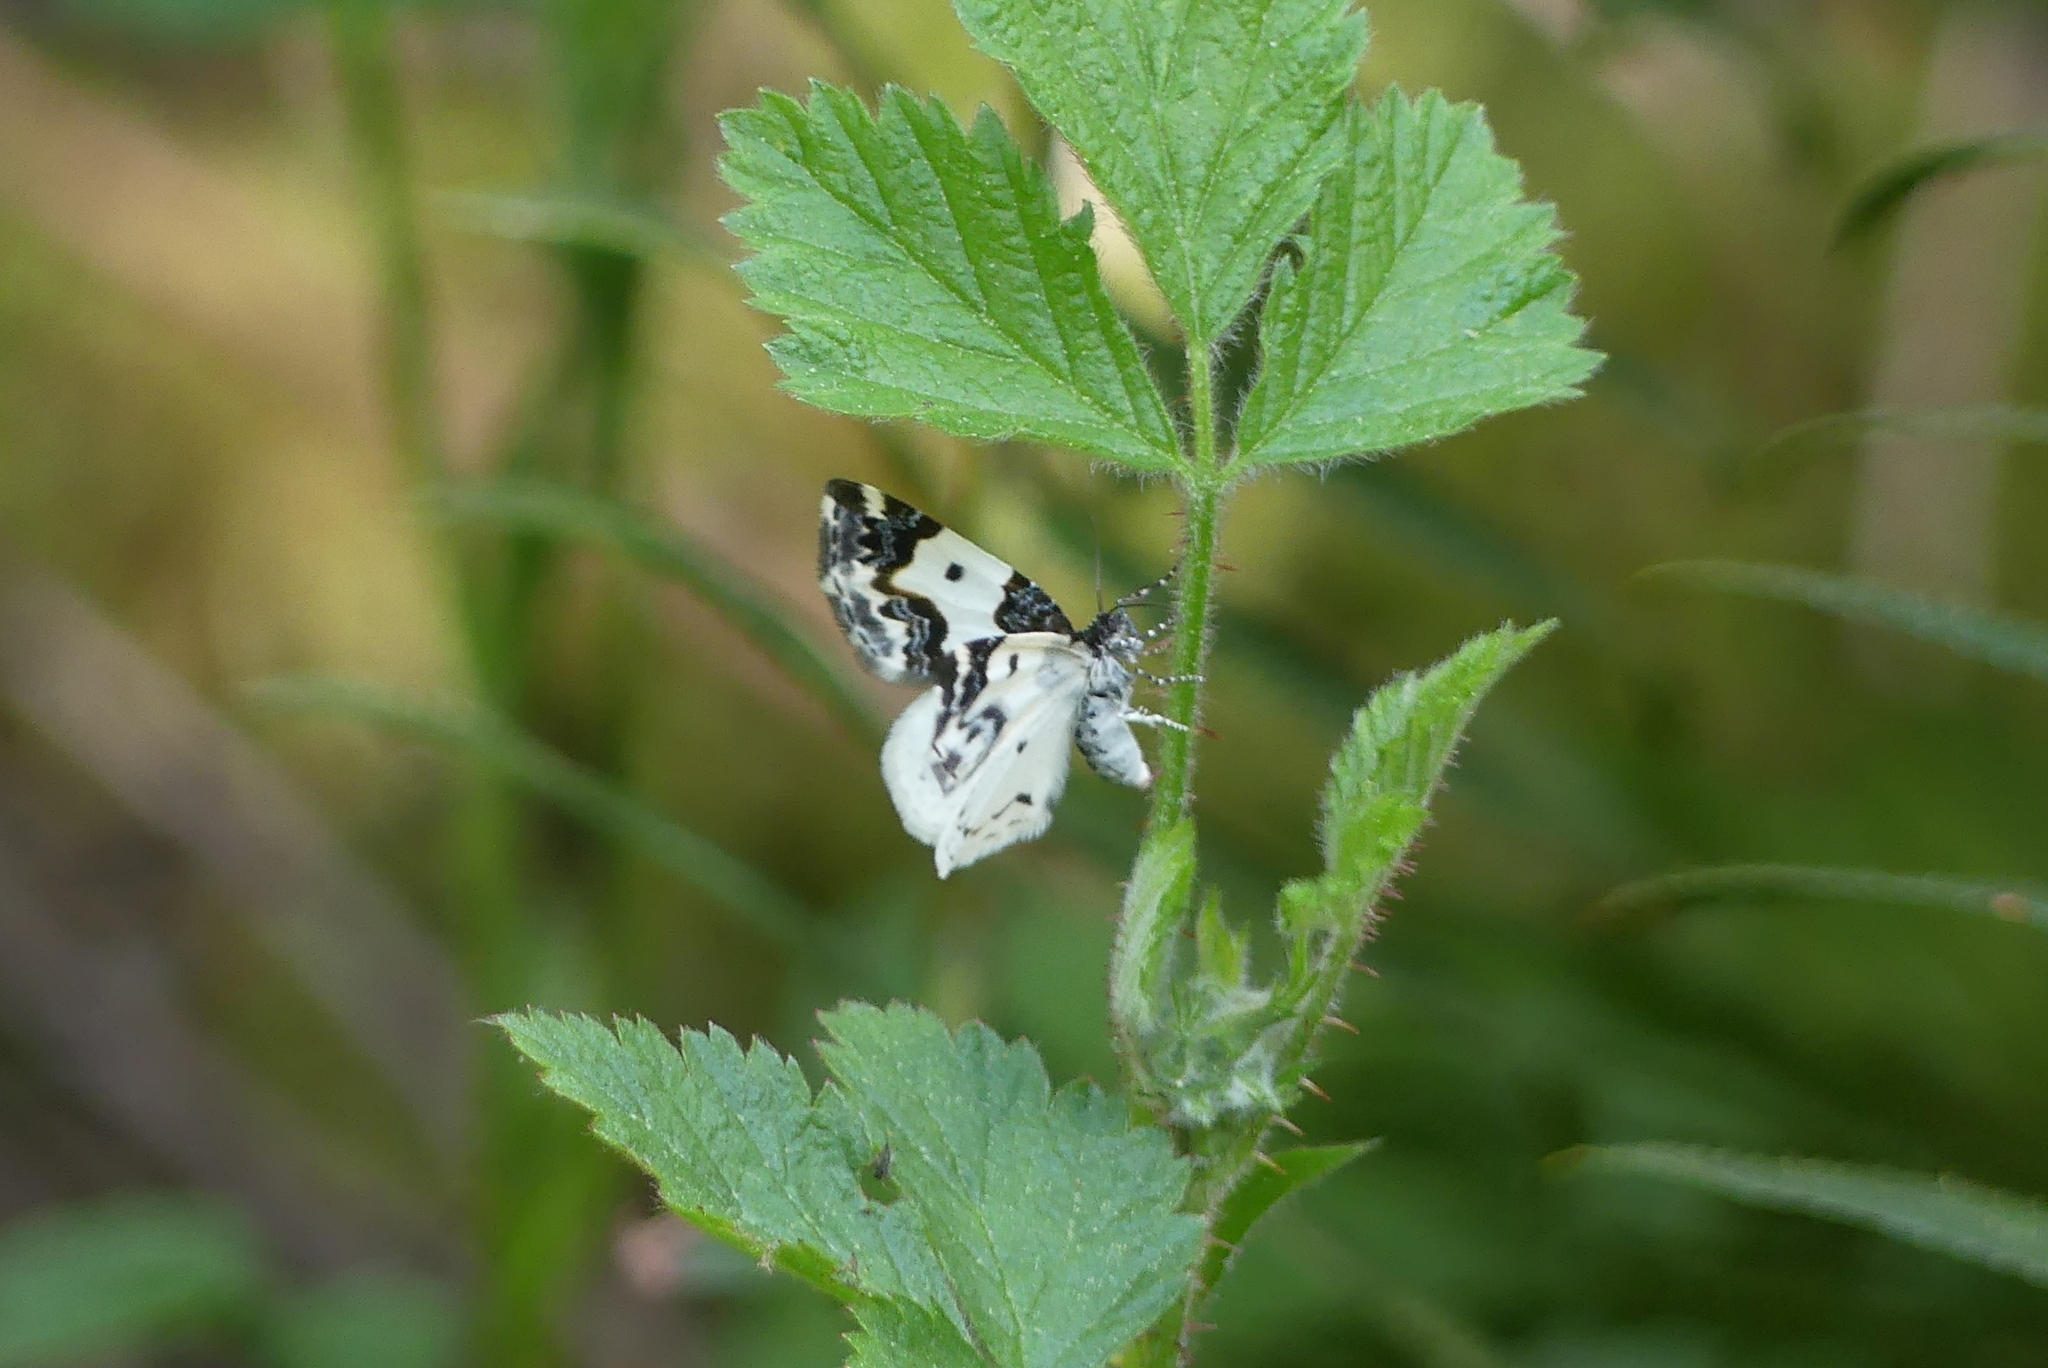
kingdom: Animalia
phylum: Arthropoda
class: Insecta
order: Lepidoptera
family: Geometridae
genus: Mesoleuca
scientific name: Mesoleuca gratulata
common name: Half-white carpet moth
